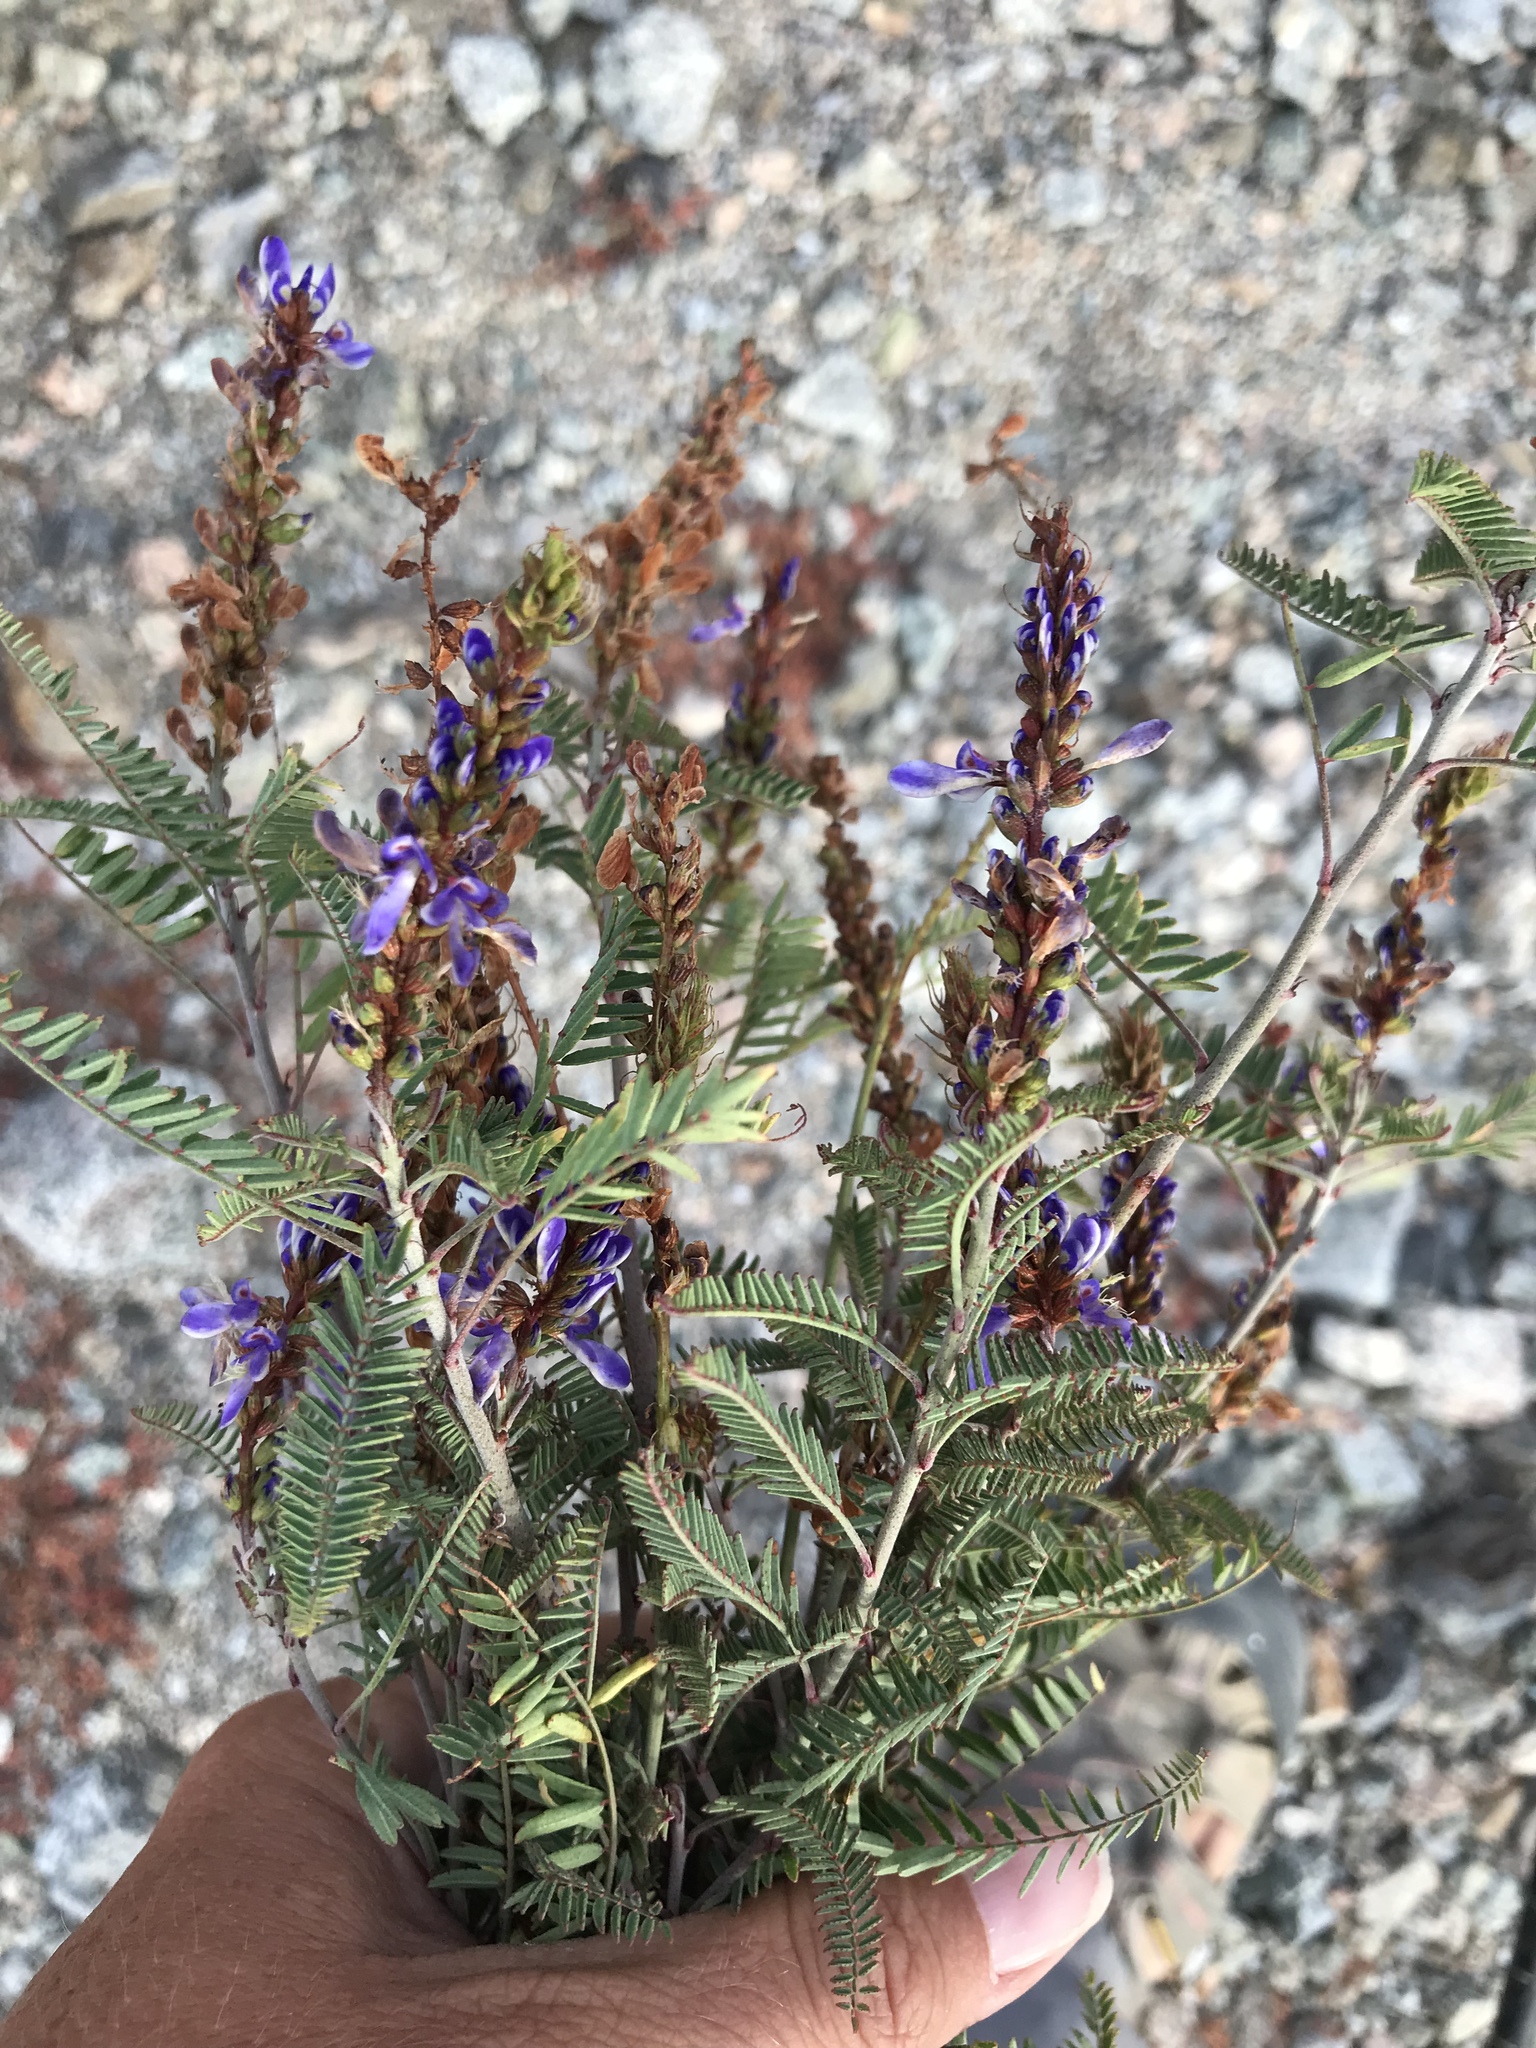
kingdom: Plantae
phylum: Tracheophyta
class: Magnoliopsida
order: Fabales
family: Fabaceae
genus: Marina
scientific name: Marina oculata
